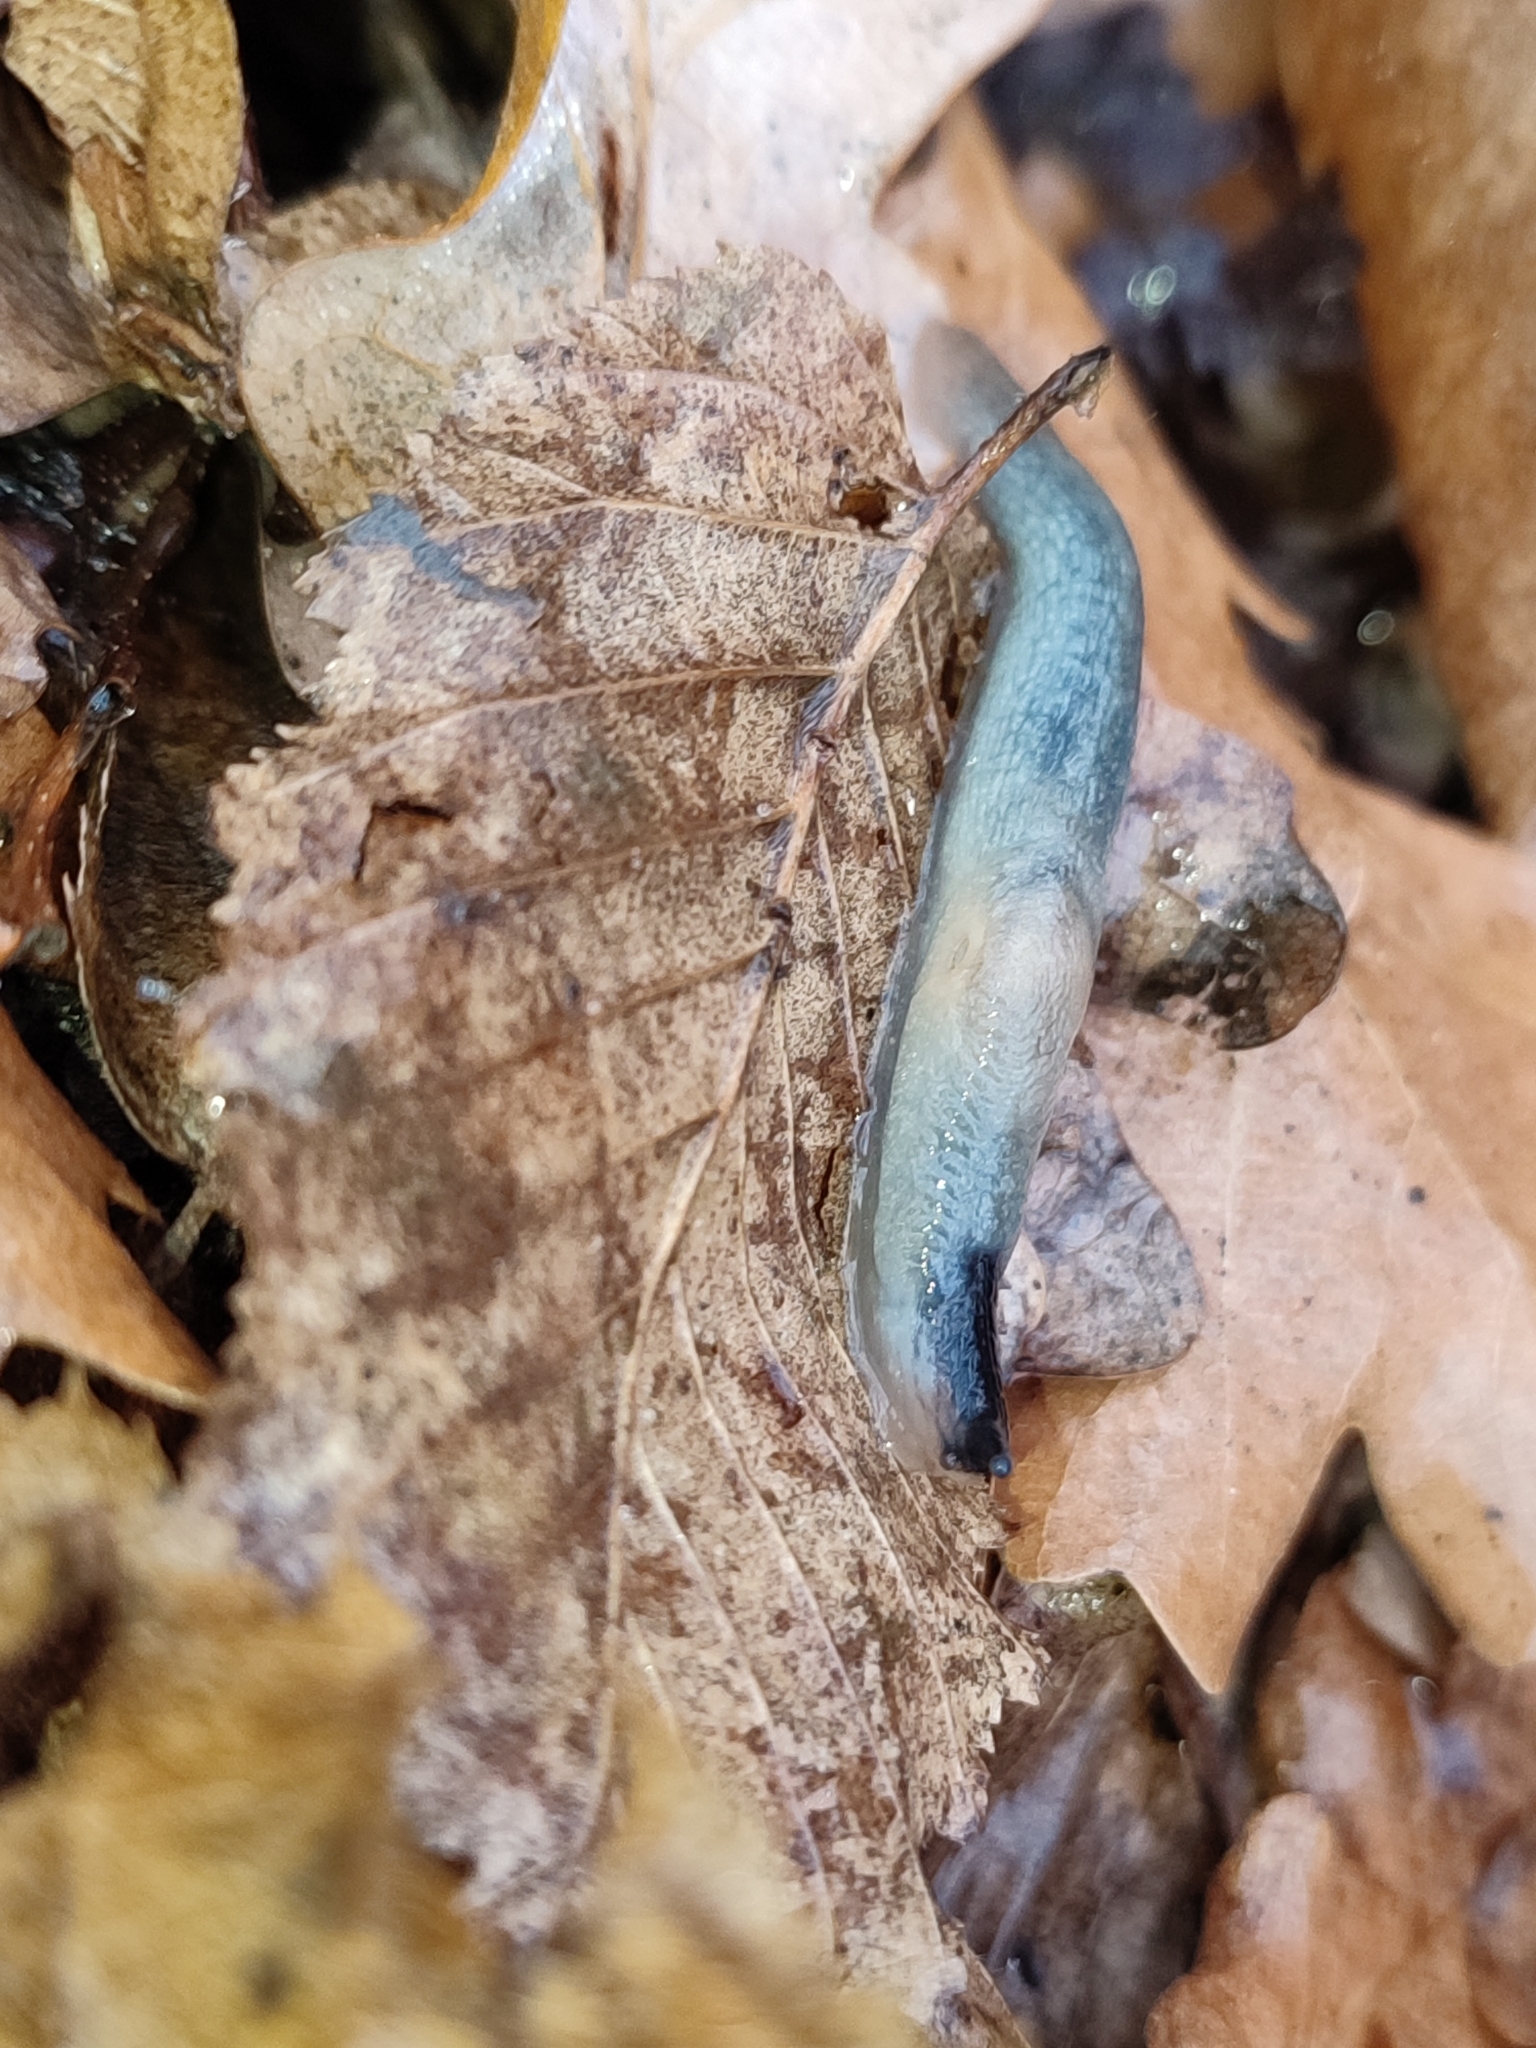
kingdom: Animalia
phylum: Mollusca
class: Gastropoda
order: Stylommatophora
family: Agriolimacidae
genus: Krynickillus
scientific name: Krynickillus melanocephalus
